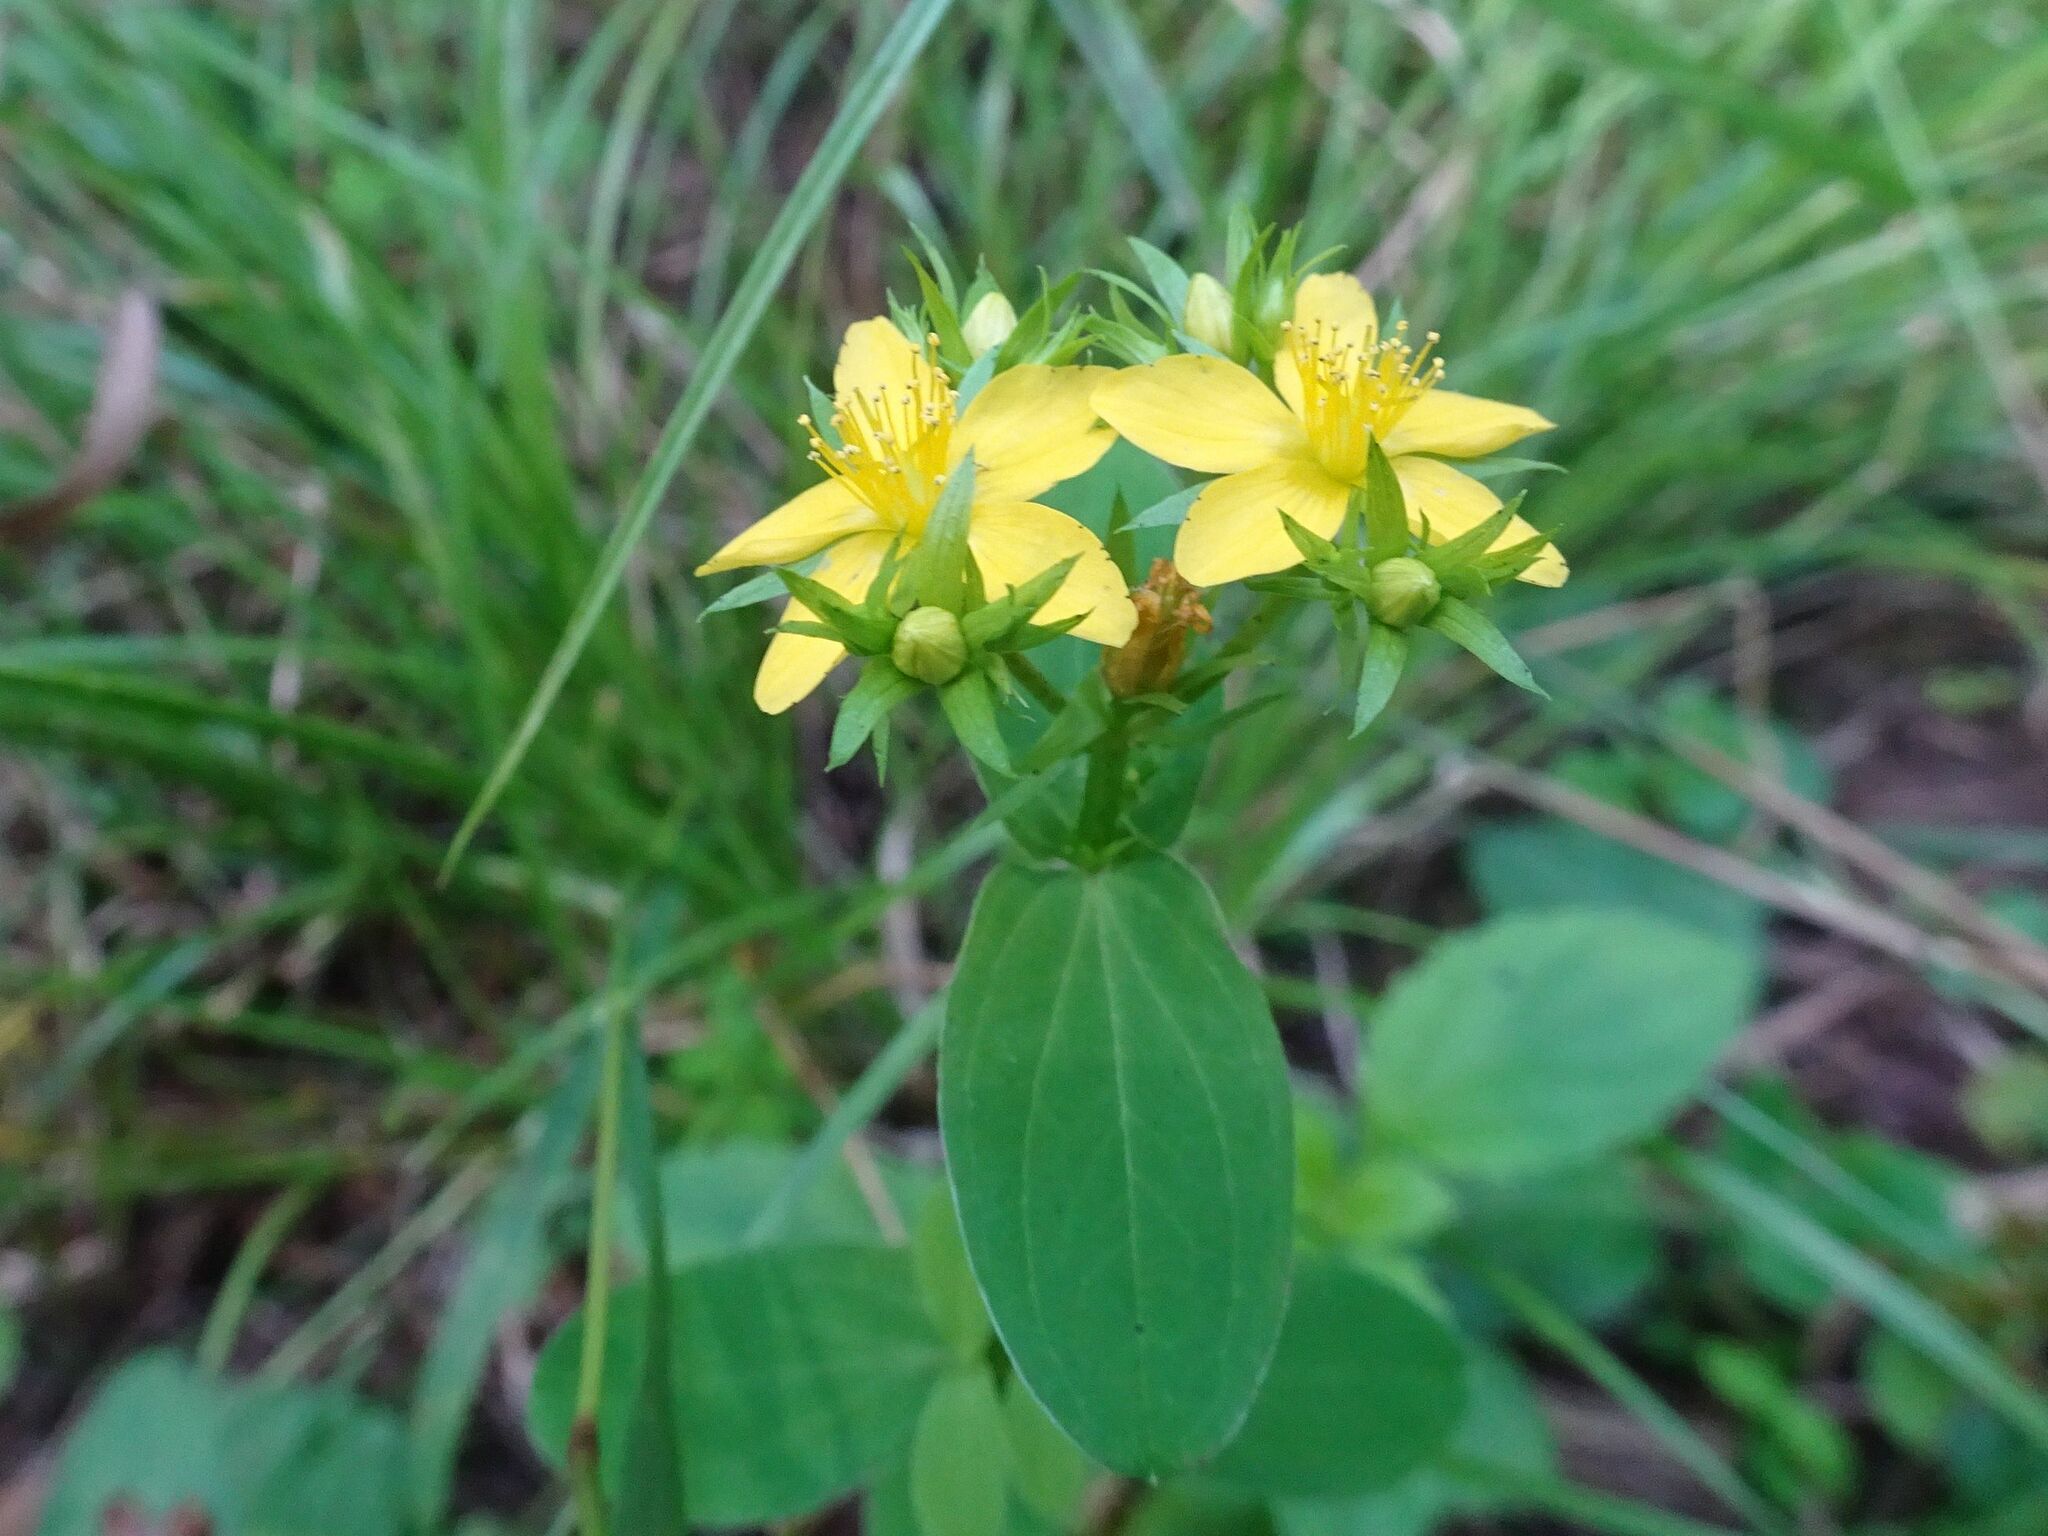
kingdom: Plantae
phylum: Tracheophyta
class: Magnoliopsida
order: Malpighiales
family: Hypericaceae
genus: Hypericum
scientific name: Hypericum tetrapterum
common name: Square-stalked st. john's-wort
